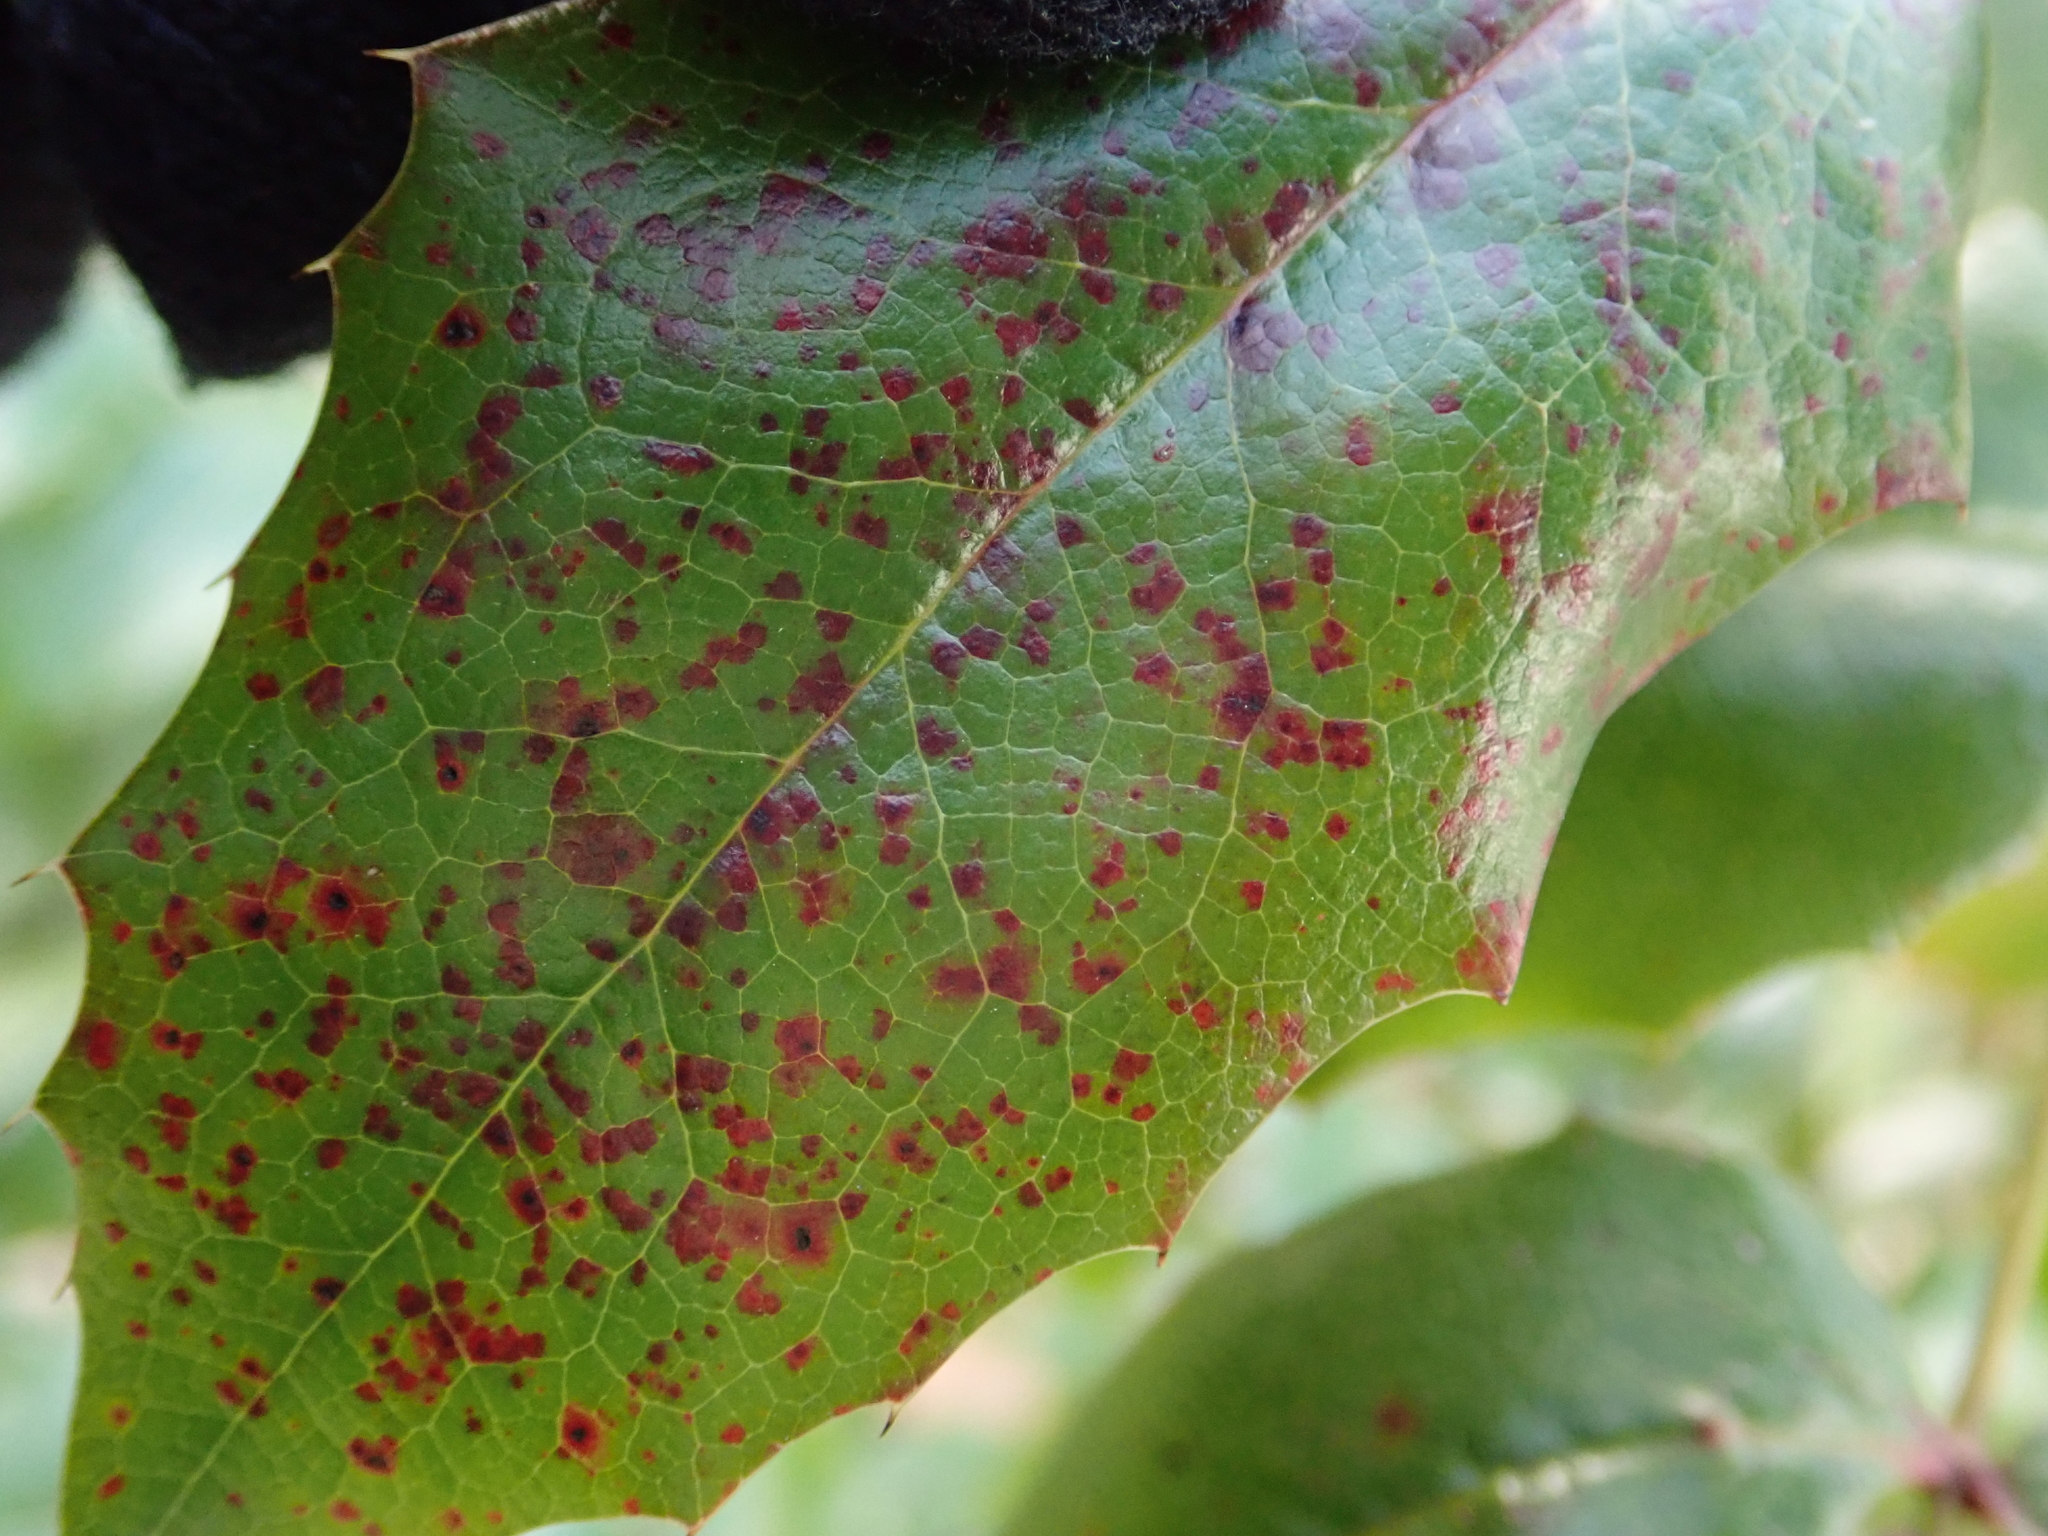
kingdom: Fungi
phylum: Basidiomycota
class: Pucciniomycetes
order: Pucciniales
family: Pucciniaceae
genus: Cumminsiella
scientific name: Cumminsiella mirabilissima
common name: Mahonia rust
